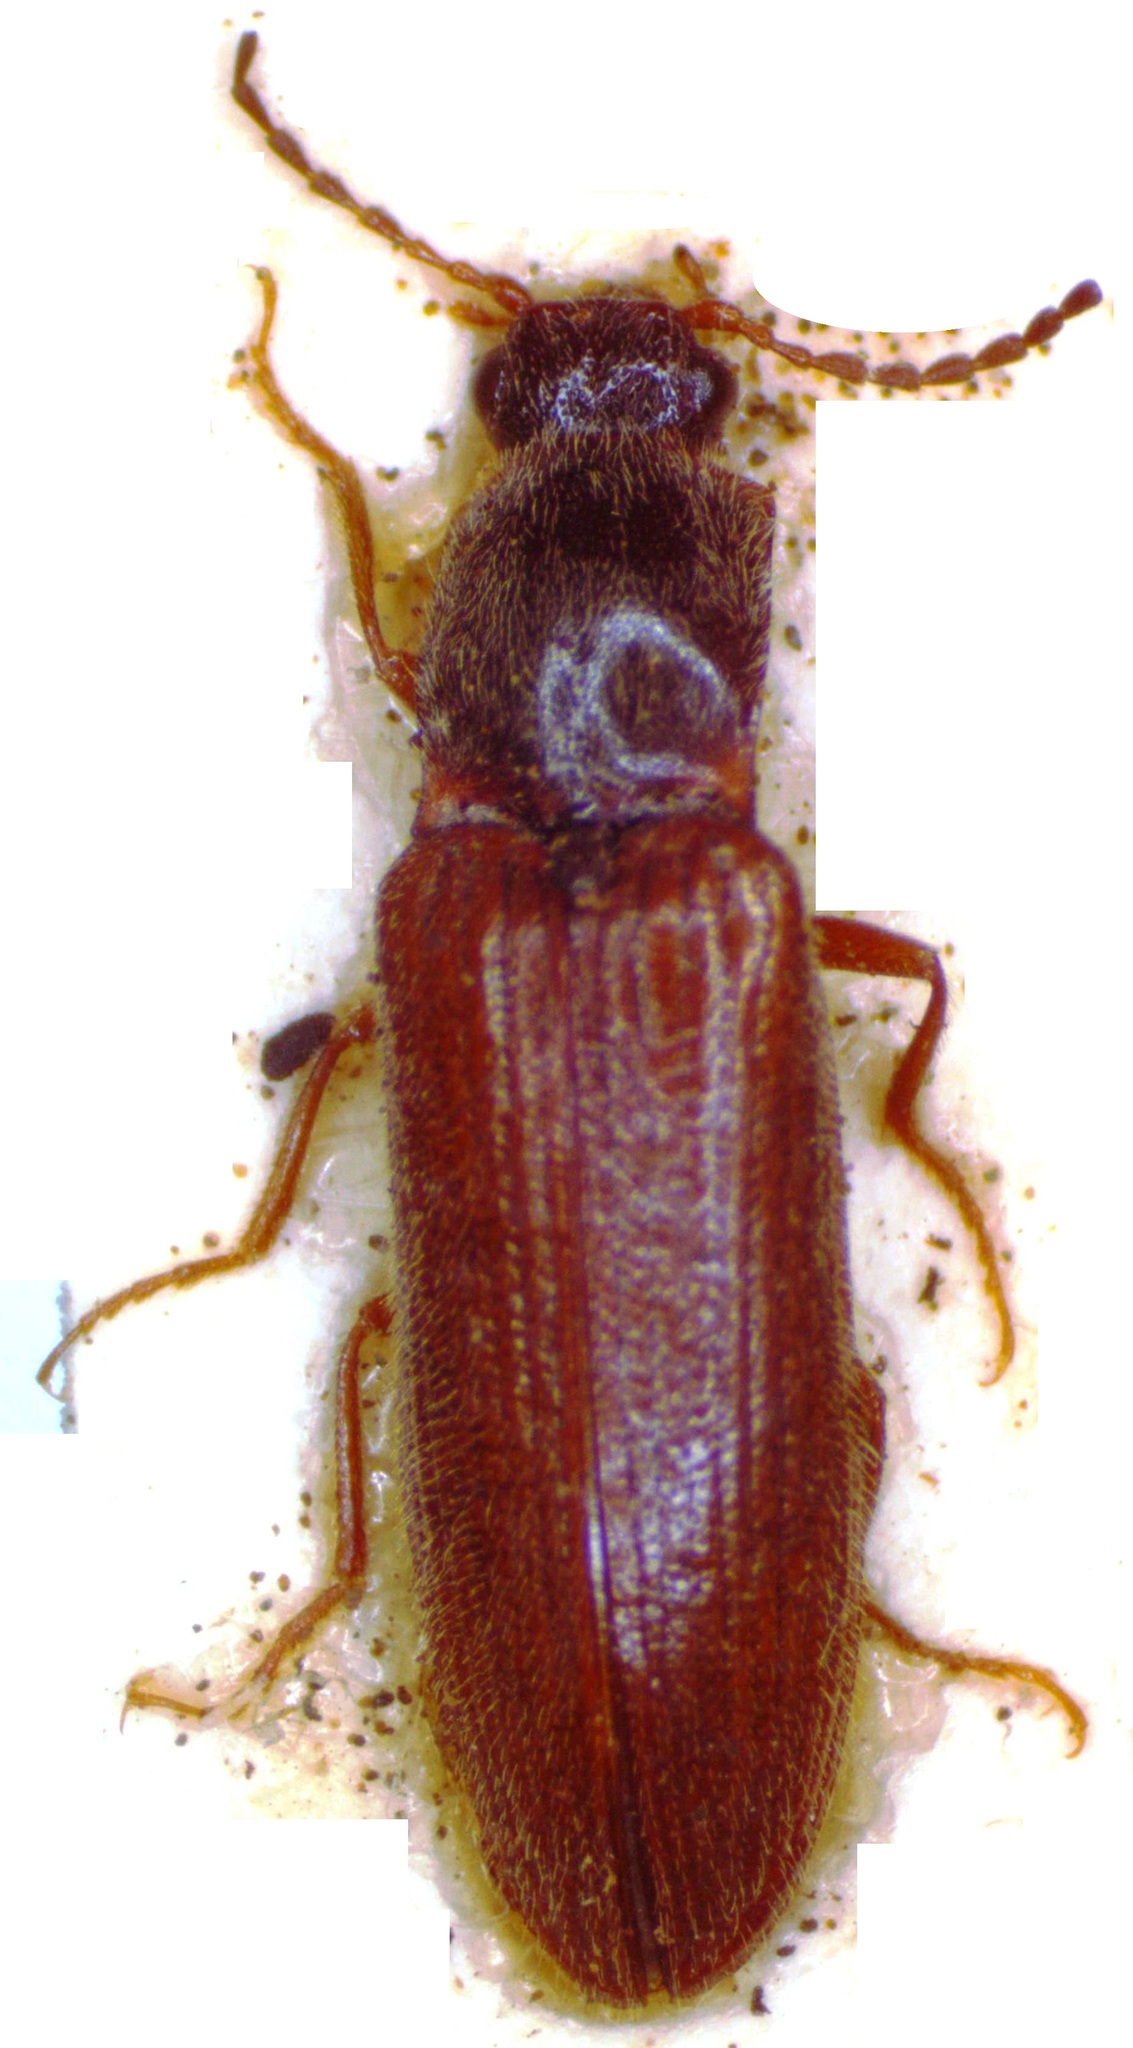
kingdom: Animalia
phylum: Arthropoda
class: Insecta
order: Coleoptera
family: Elateridae
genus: Athous
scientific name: Athous subfuscus
